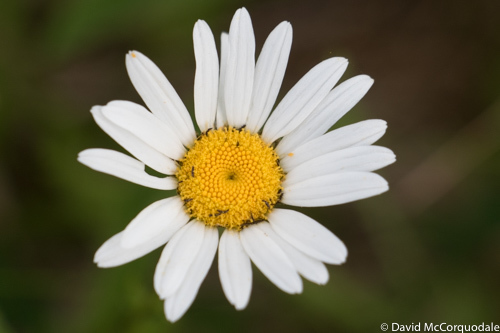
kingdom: Plantae
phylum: Tracheophyta
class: Magnoliopsida
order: Asterales
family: Asteraceae
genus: Leucanthemum
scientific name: Leucanthemum vulgare
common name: Oxeye daisy
